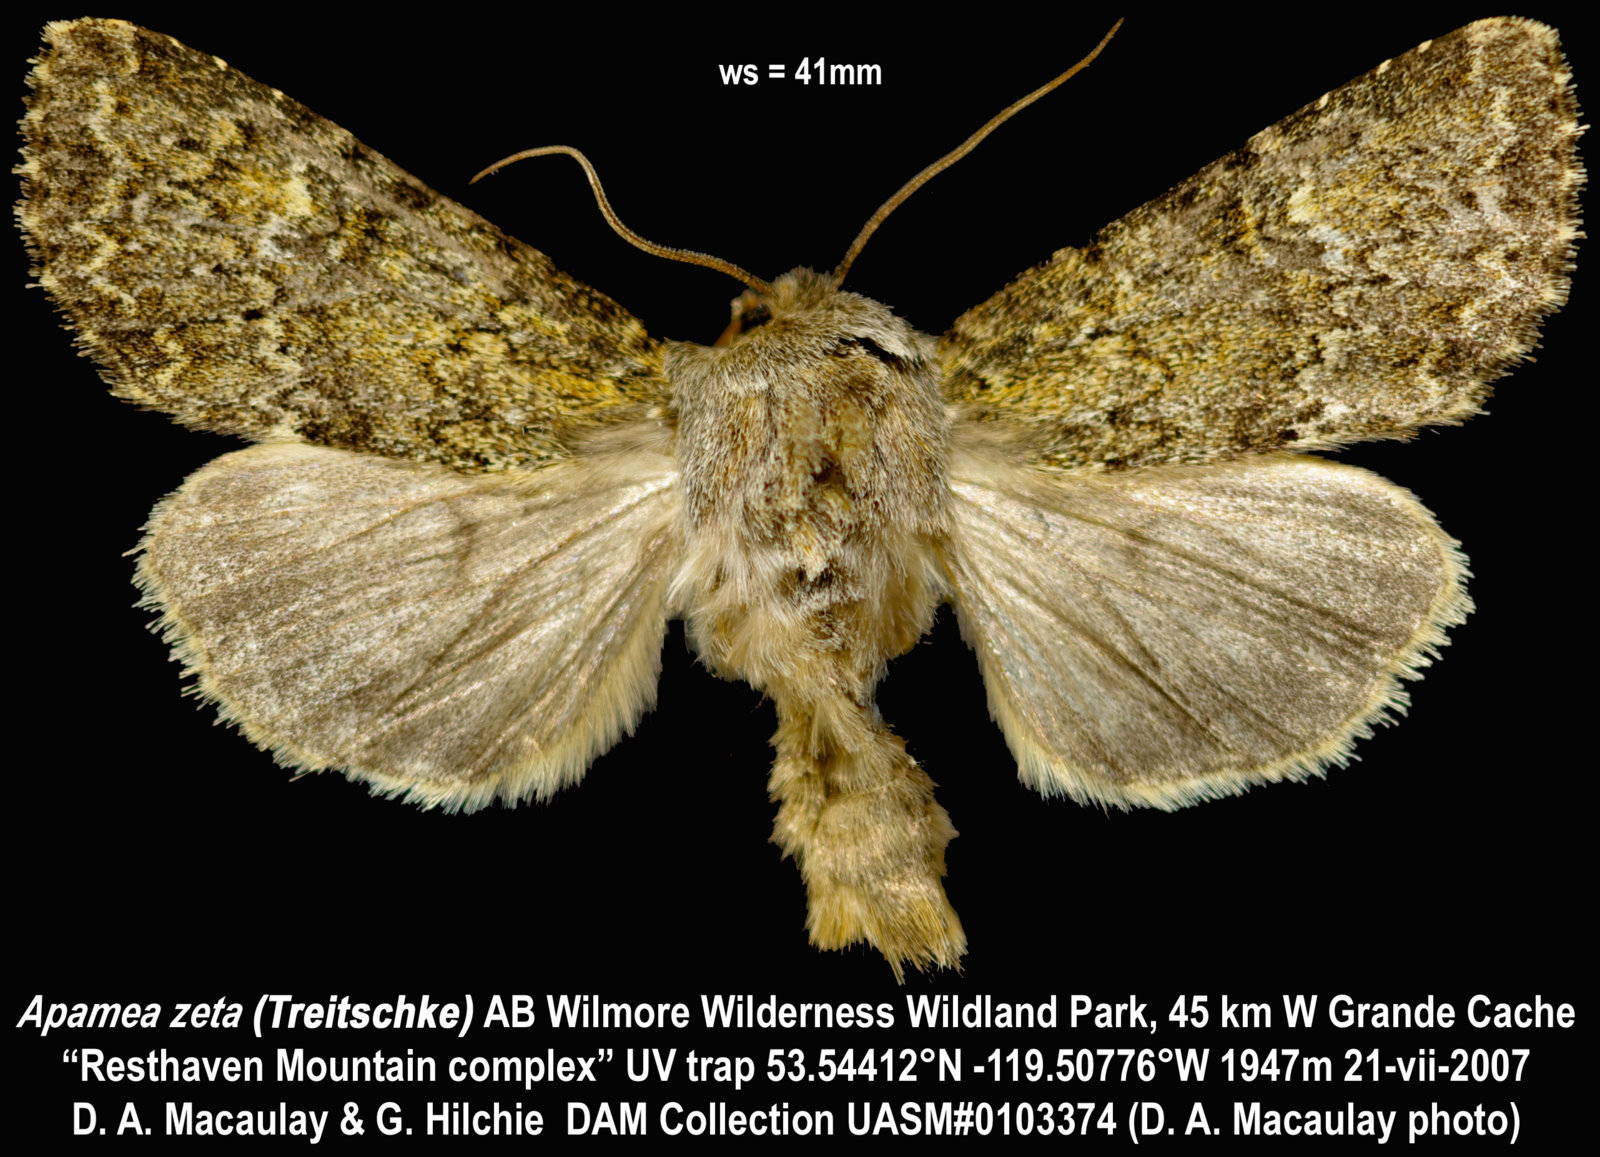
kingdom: Animalia
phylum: Arthropoda
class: Insecta
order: Lepidoptera
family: Noctuidae
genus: Apamea
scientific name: Apamea zeta
